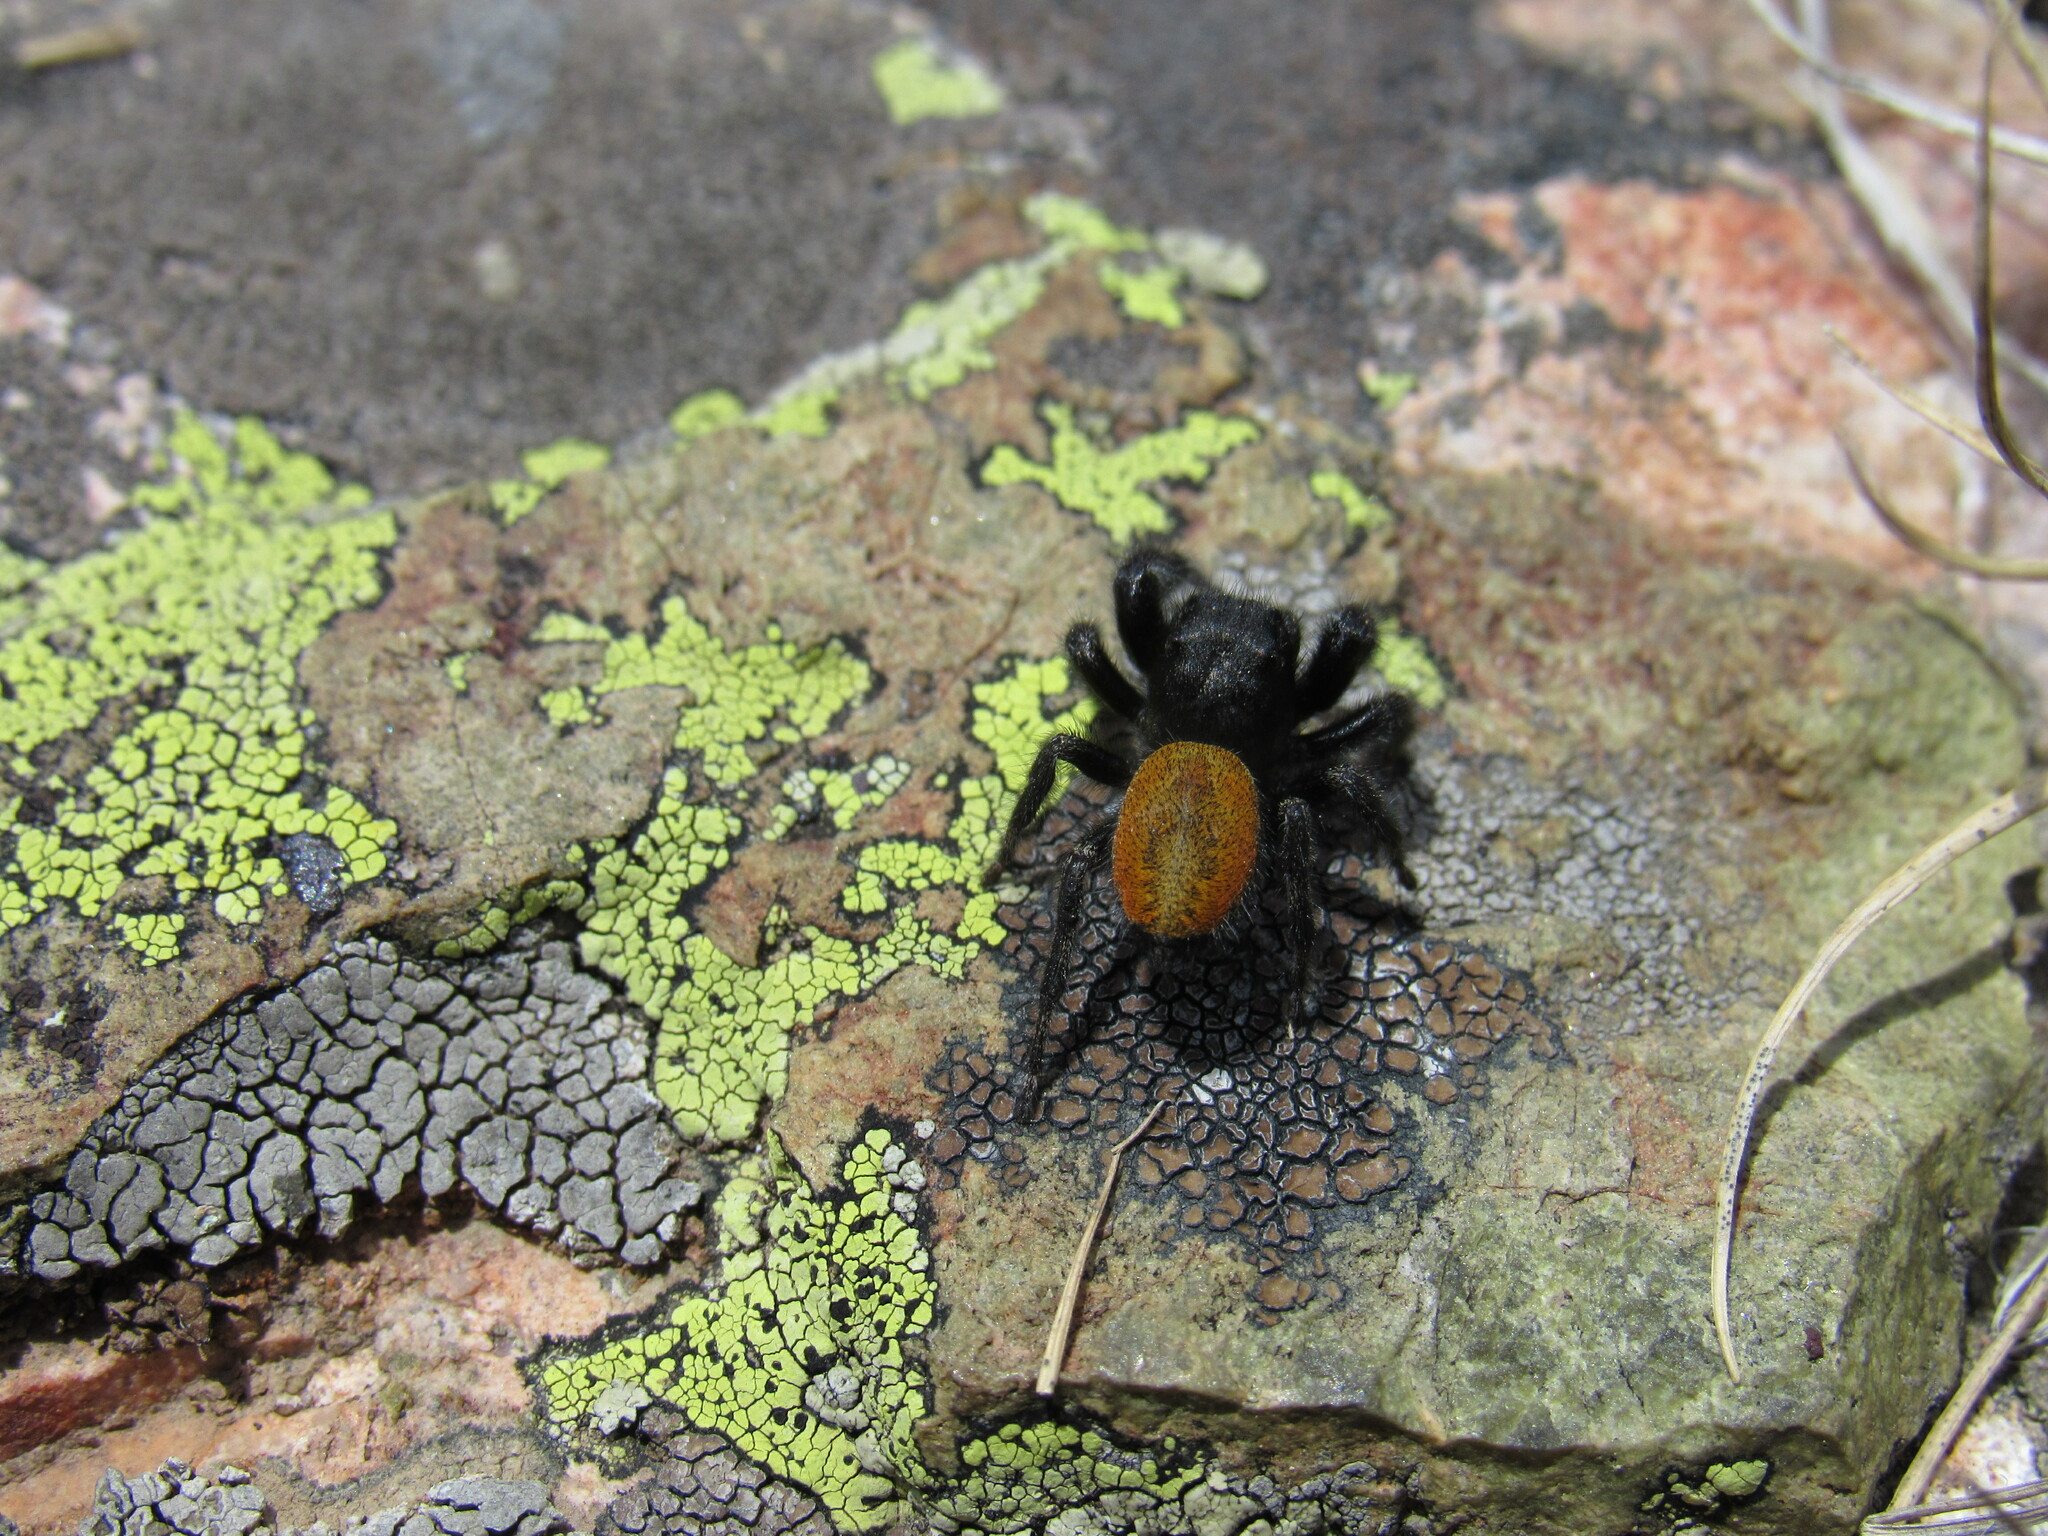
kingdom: Animalia
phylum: Arthropoda
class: Arachnida
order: Araneae
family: Salticidae
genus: Phidippus
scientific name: Phidippus olympus
